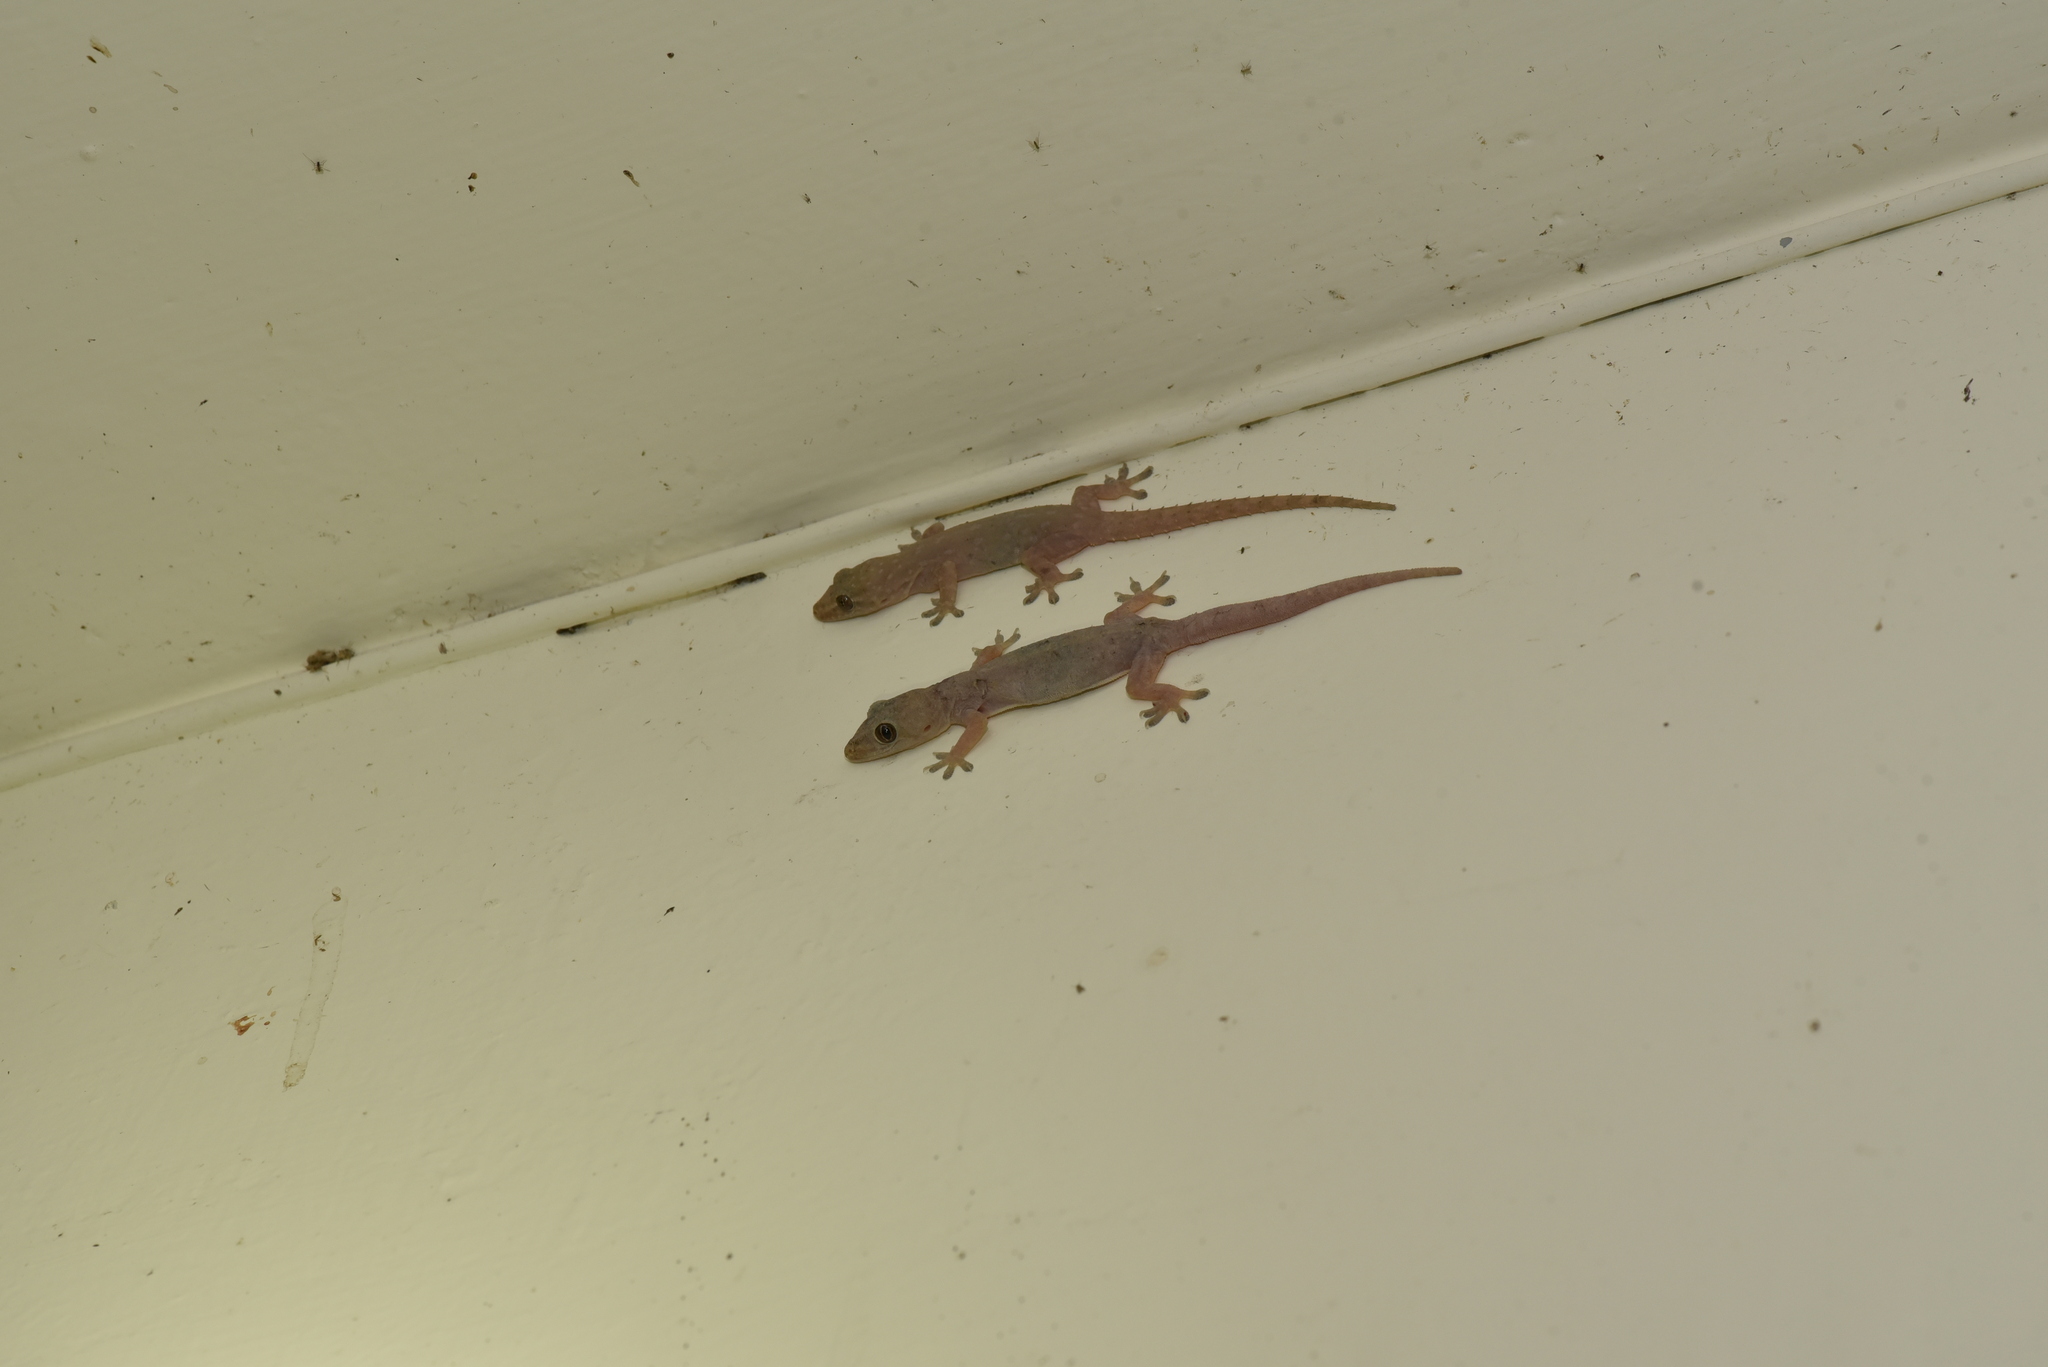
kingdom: Animalia
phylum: Chordata
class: Squamata
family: Gekkonidae
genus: Hemidactylus
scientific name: Hemidactylus frenatus
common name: Common house gecko
